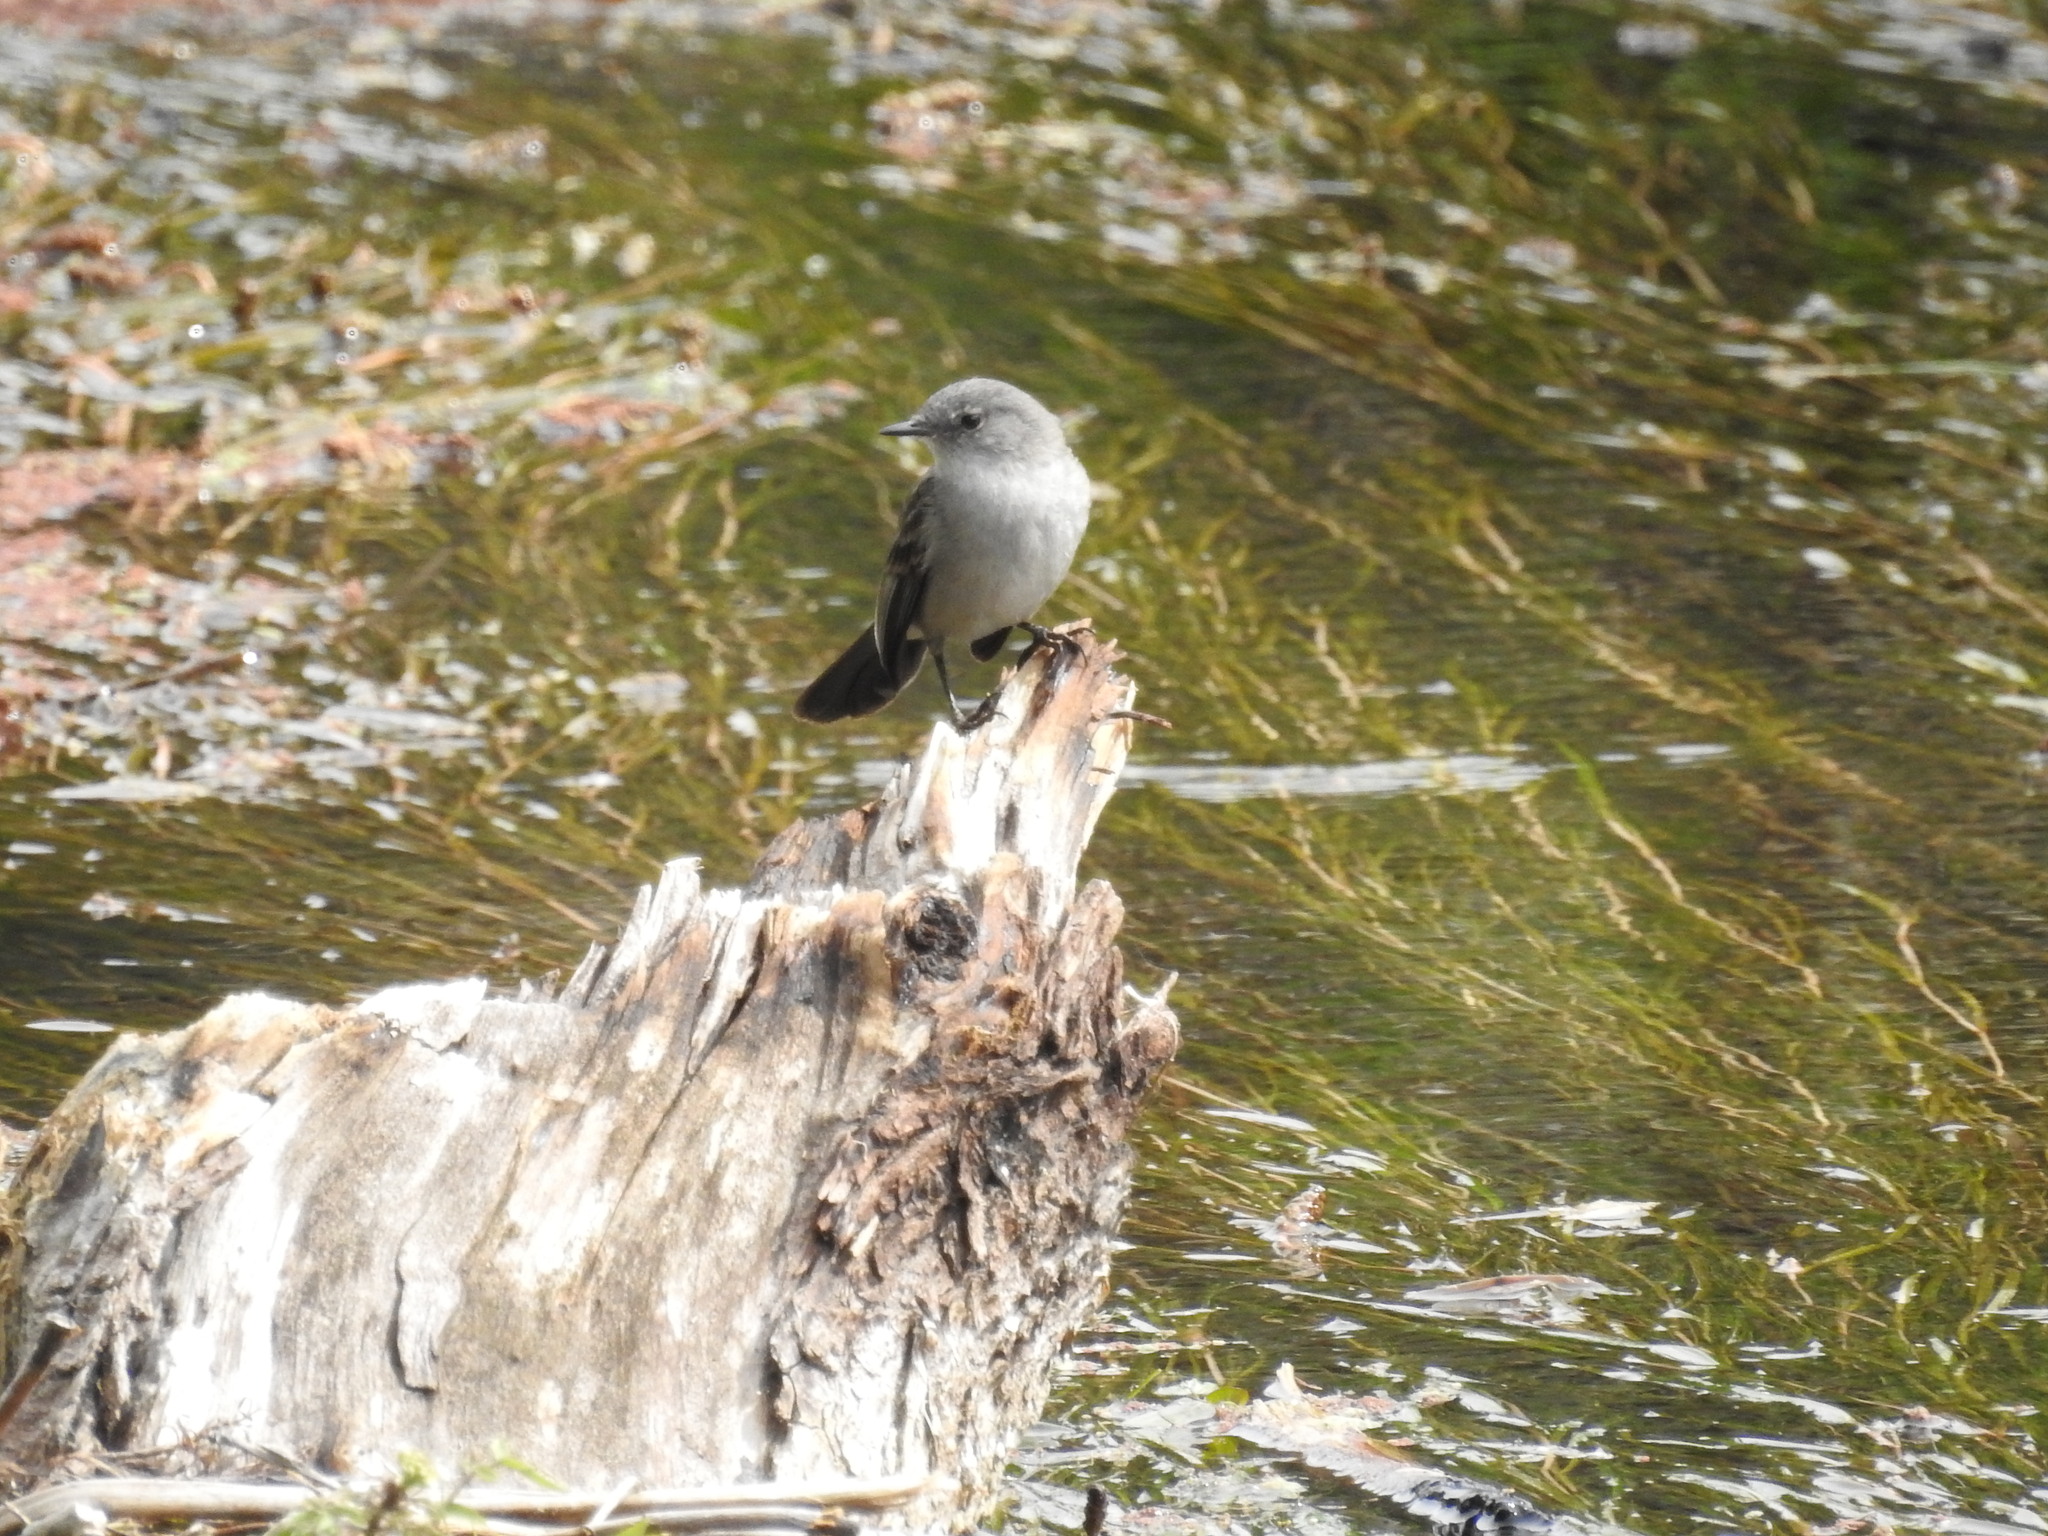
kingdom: Animalia
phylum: Chordata
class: Aves
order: Passeriformes
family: Tyrannidae
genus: Serpophaga
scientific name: Serpophaga nigricans
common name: Sooty tyrannulet
